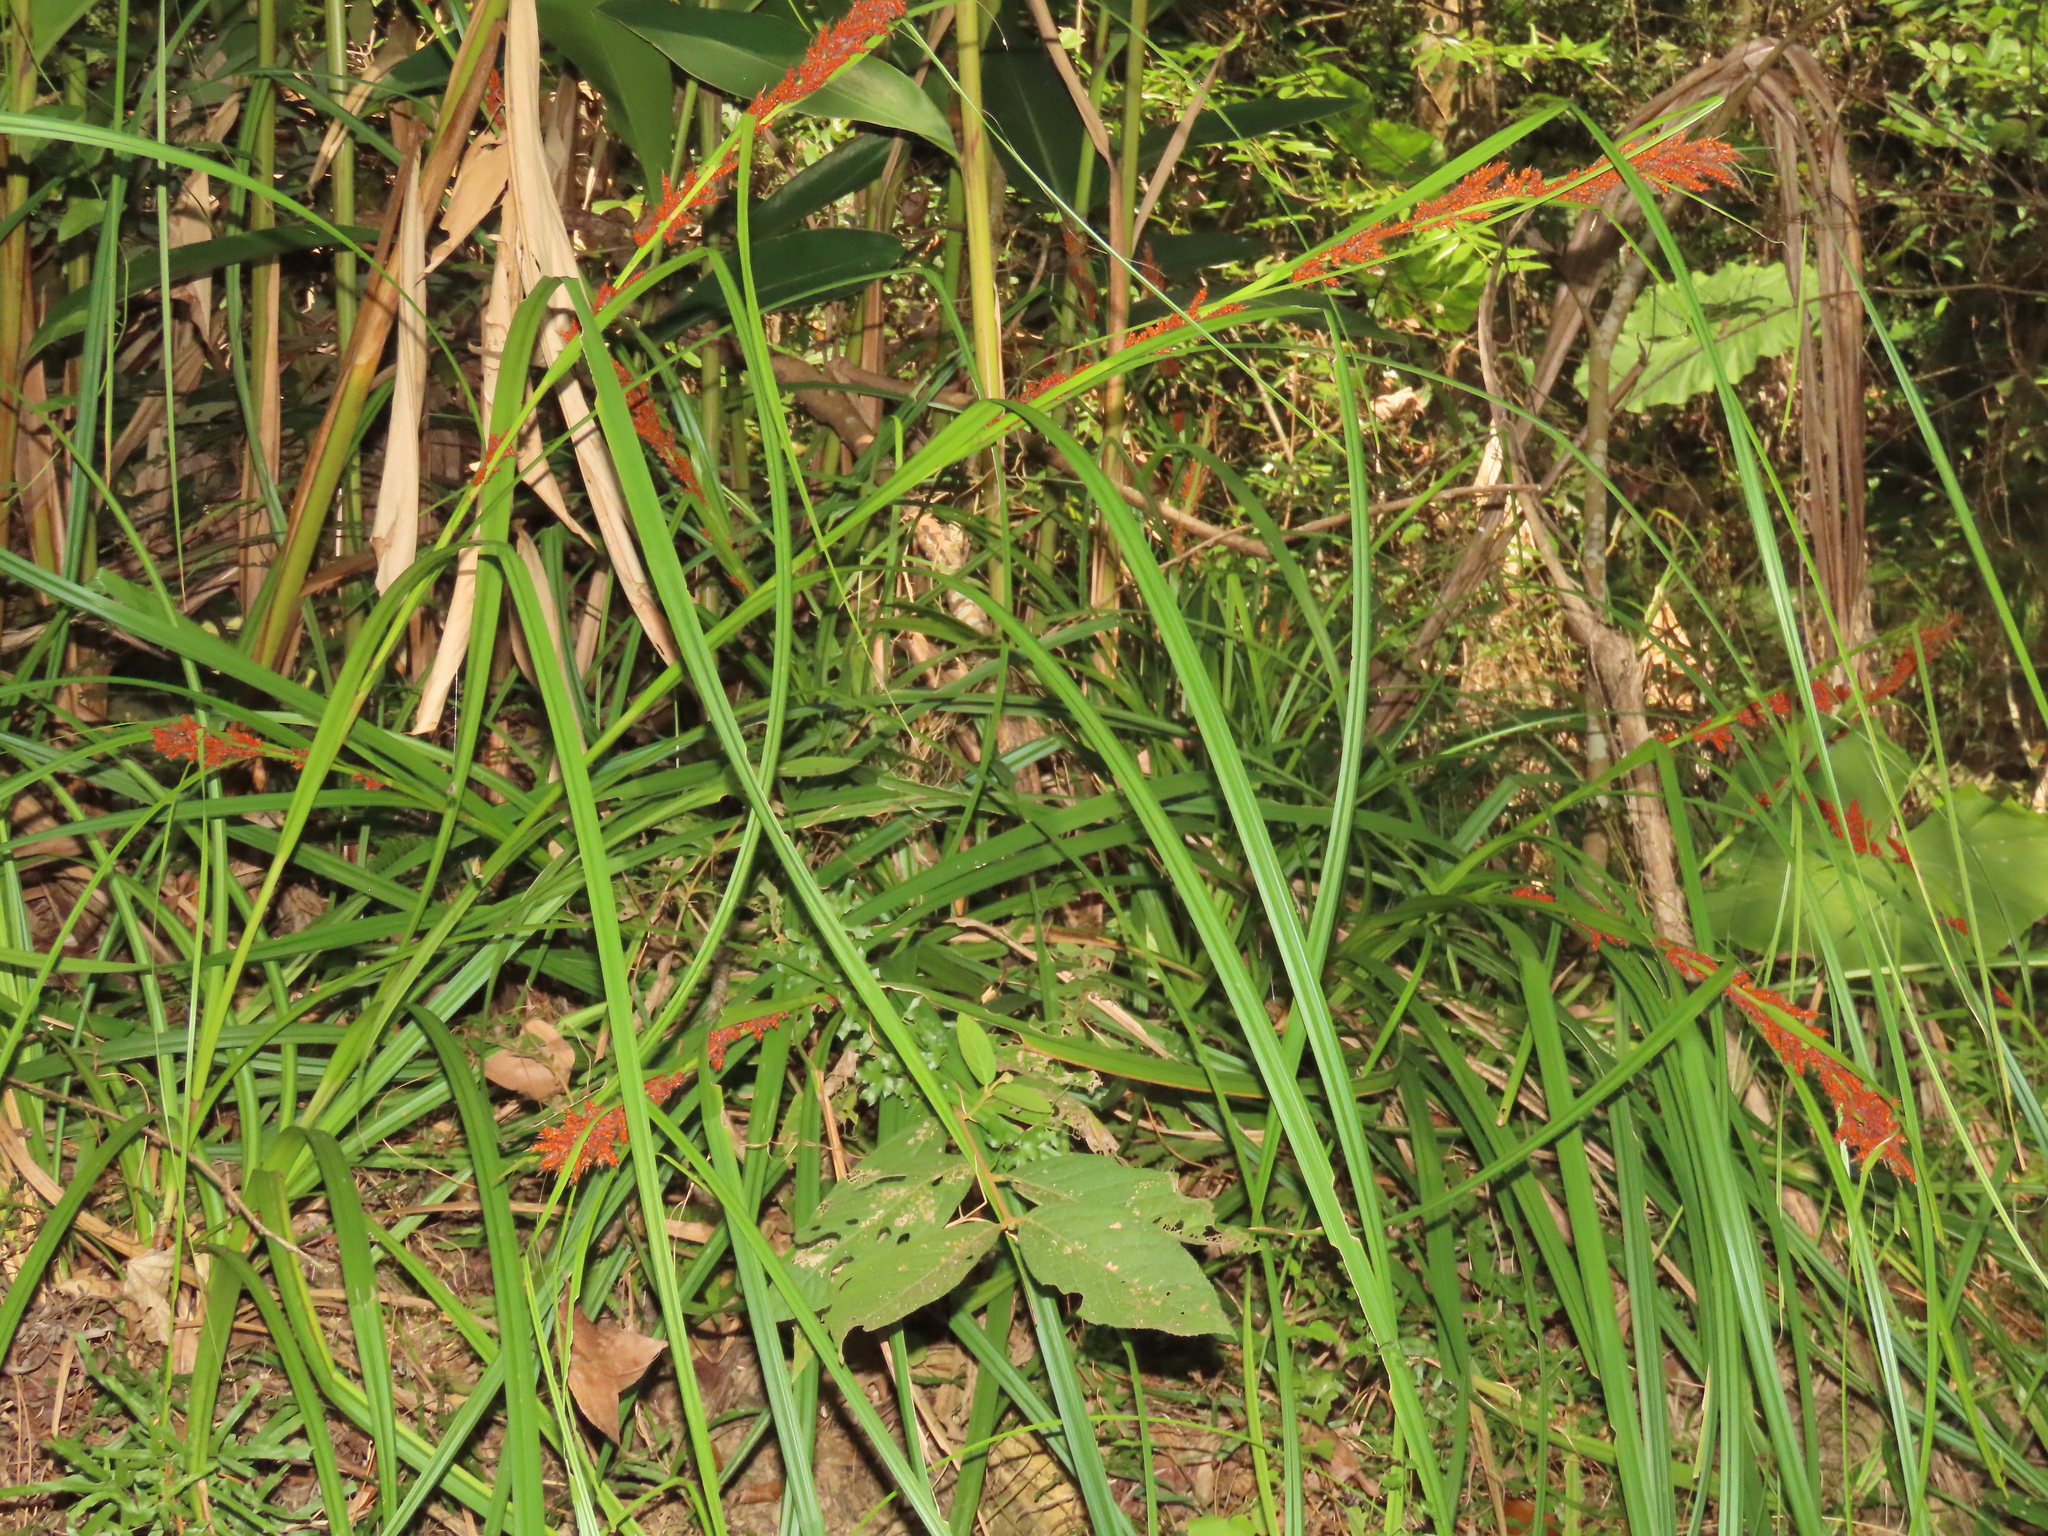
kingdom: Plantae
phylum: Tracheophyta
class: Liliopsida
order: Poales
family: Cyperaceae
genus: Carex
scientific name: Carex baccans
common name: Crimson seeded sedge
